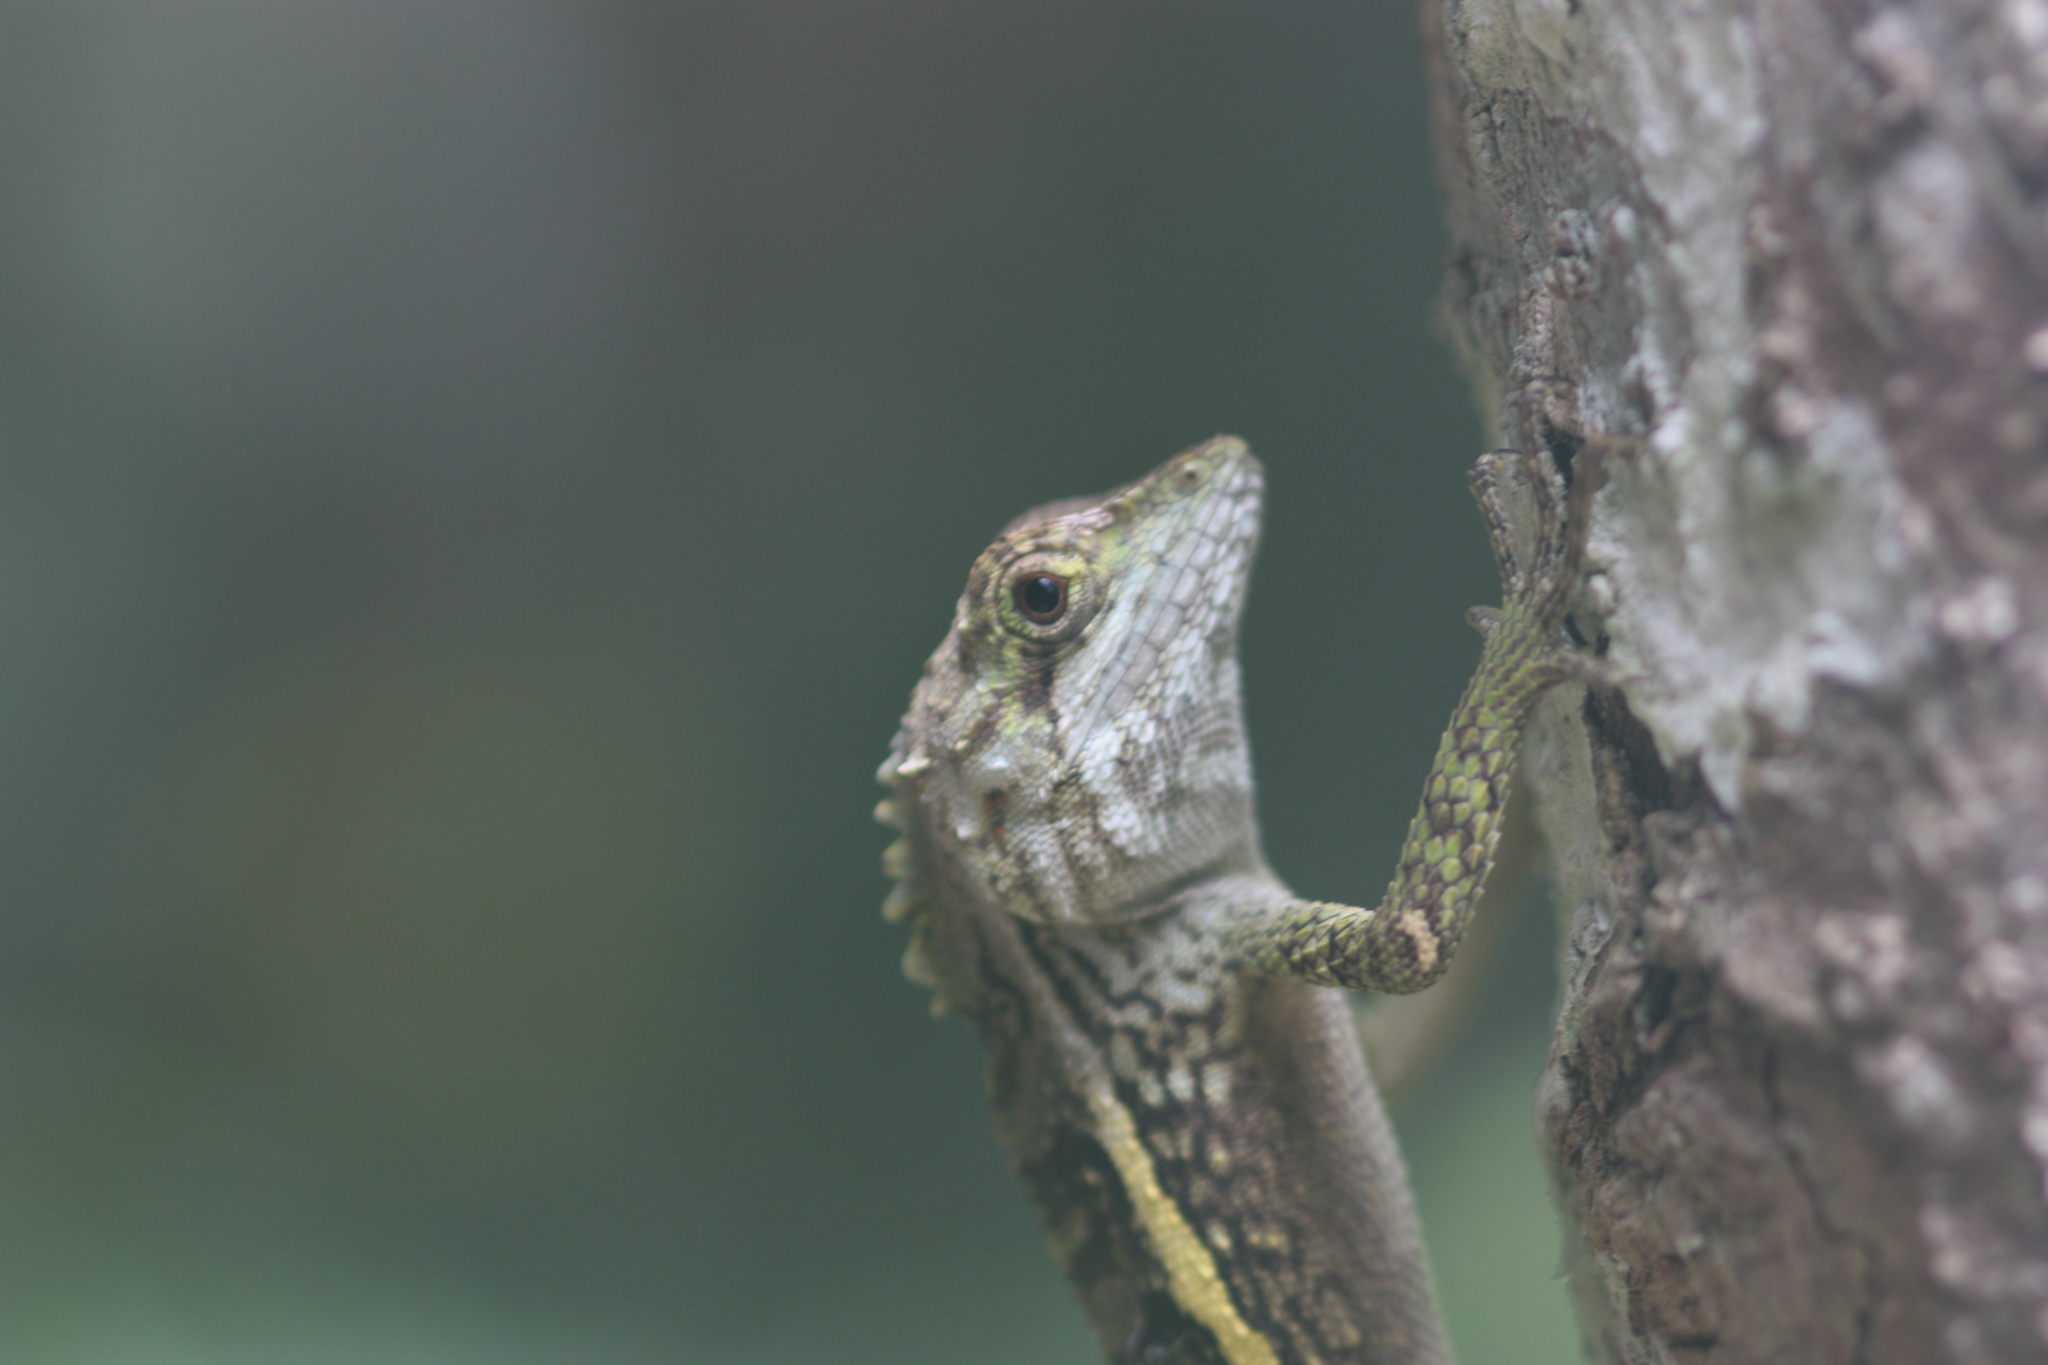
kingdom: Animalia
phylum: Chordata
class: Squamata
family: Agamidae
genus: Diploderma
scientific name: Diploderma swinhonis
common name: Taiwan japalure
